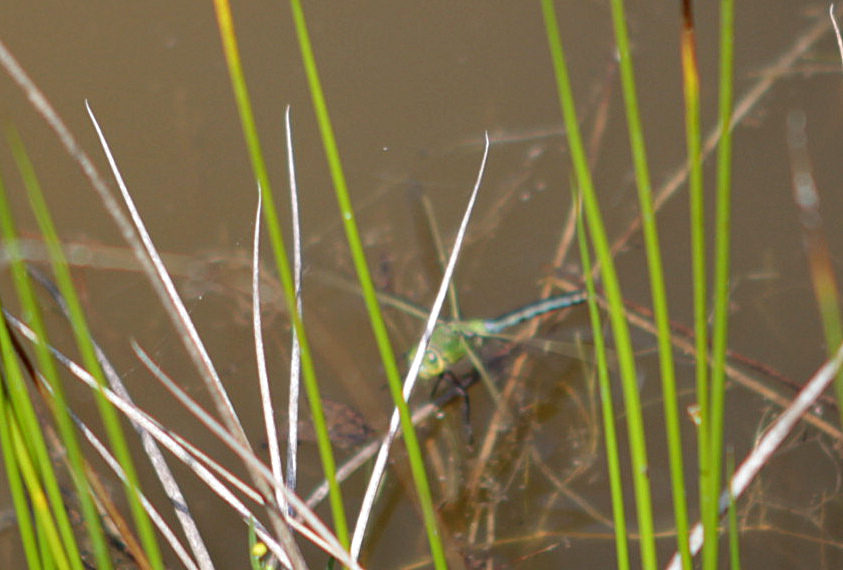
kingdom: Animalia
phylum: Arthropoda
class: Insecta
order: Odonata
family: Aeshnidae
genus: Anax
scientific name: Anax imperator
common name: Emperor dragonfly
